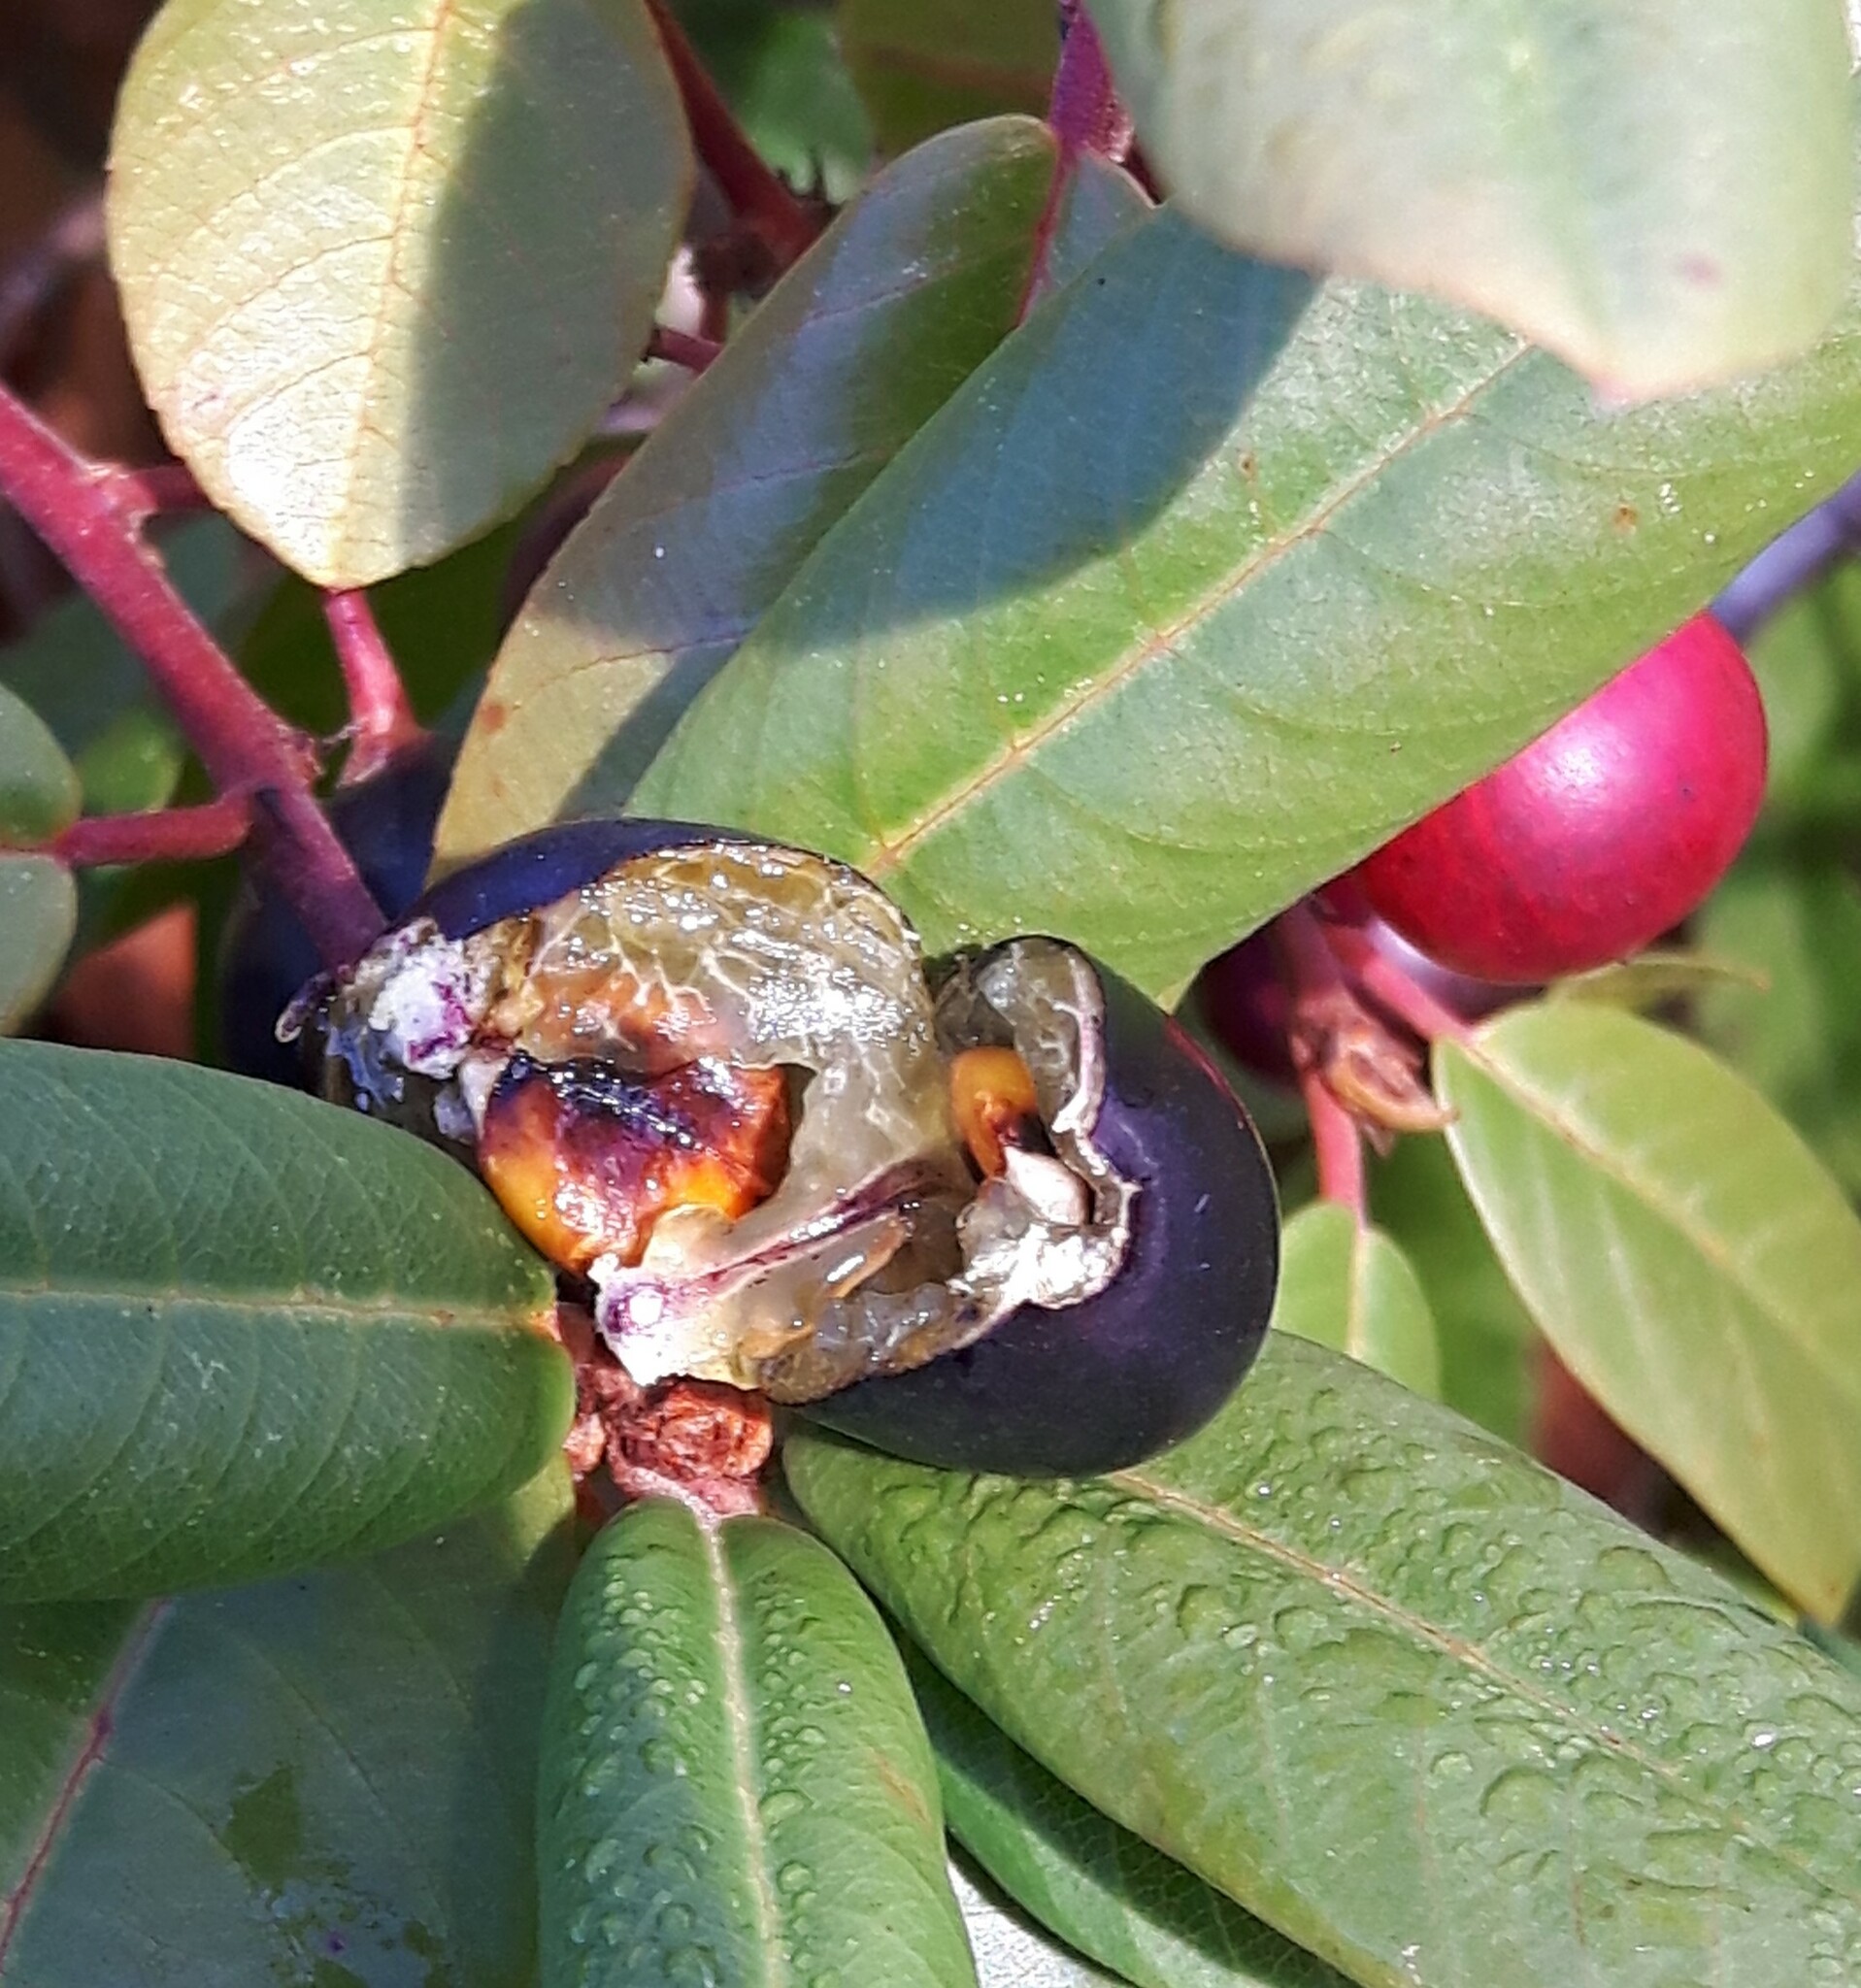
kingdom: Plantae
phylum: Tracheophyta
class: Magnoliopsida
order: Rosales
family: Rhamnaceae
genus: Frangula
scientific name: Frangula californica
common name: California buckthorn
